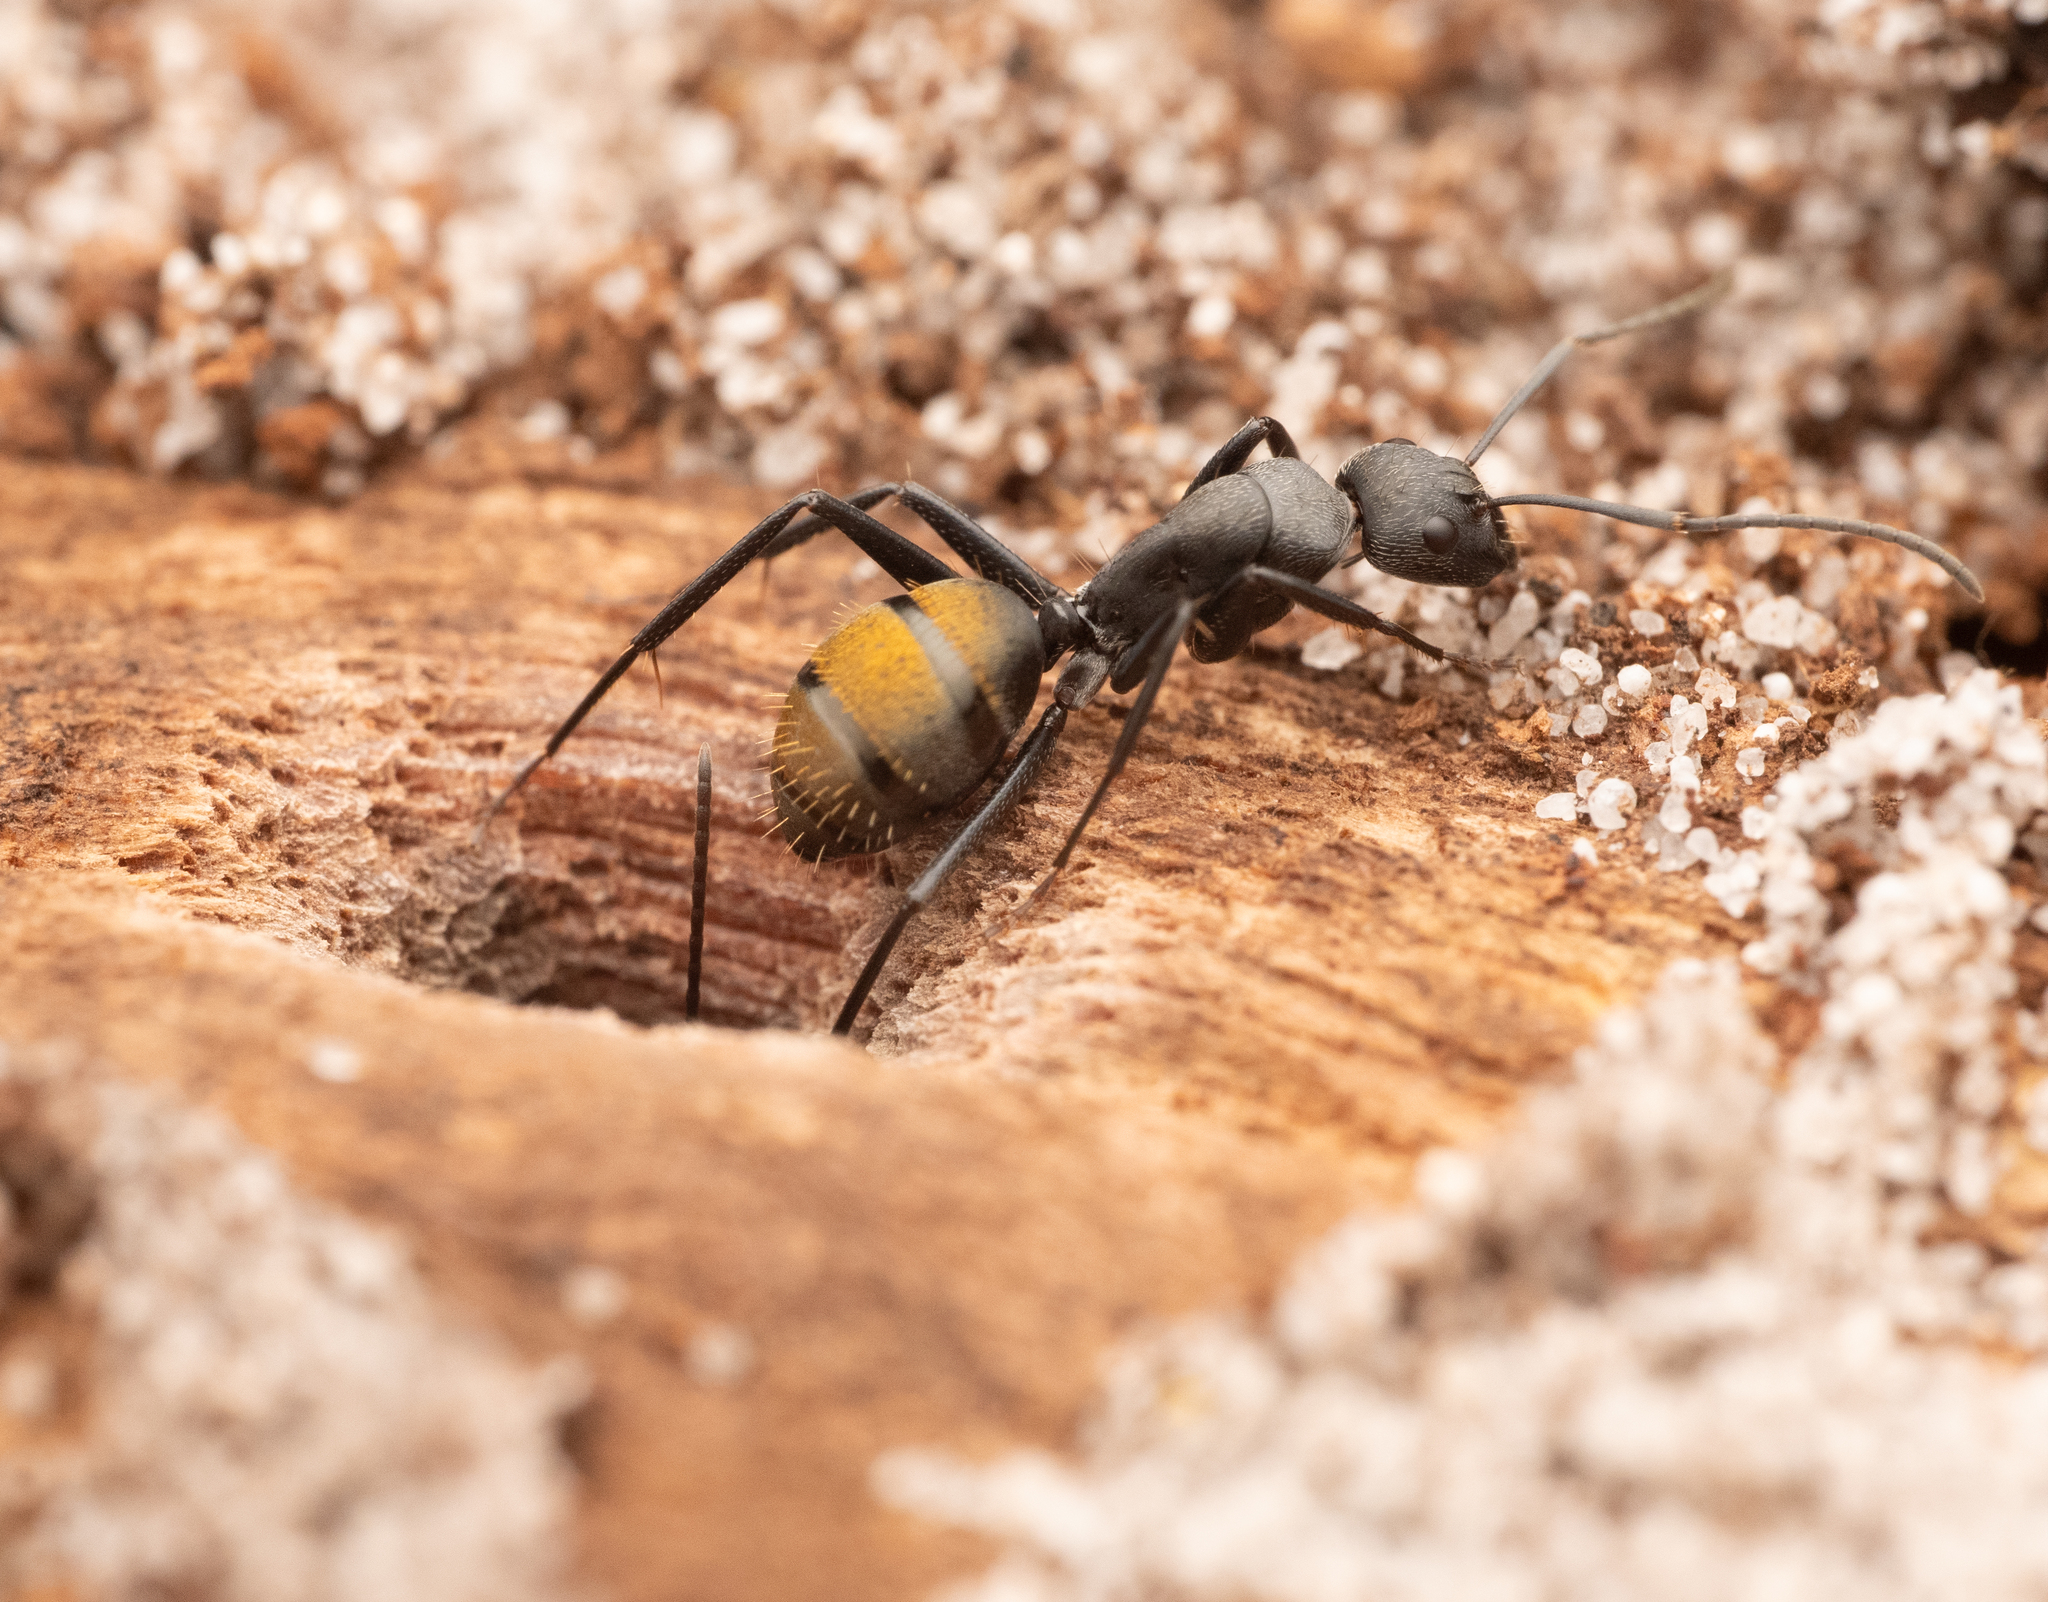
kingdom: Animalia
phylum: Arthropoda
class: Insecta
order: Hymenoptera
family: Formicidae
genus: Camponotus
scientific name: Camponotus aeneopilosus
